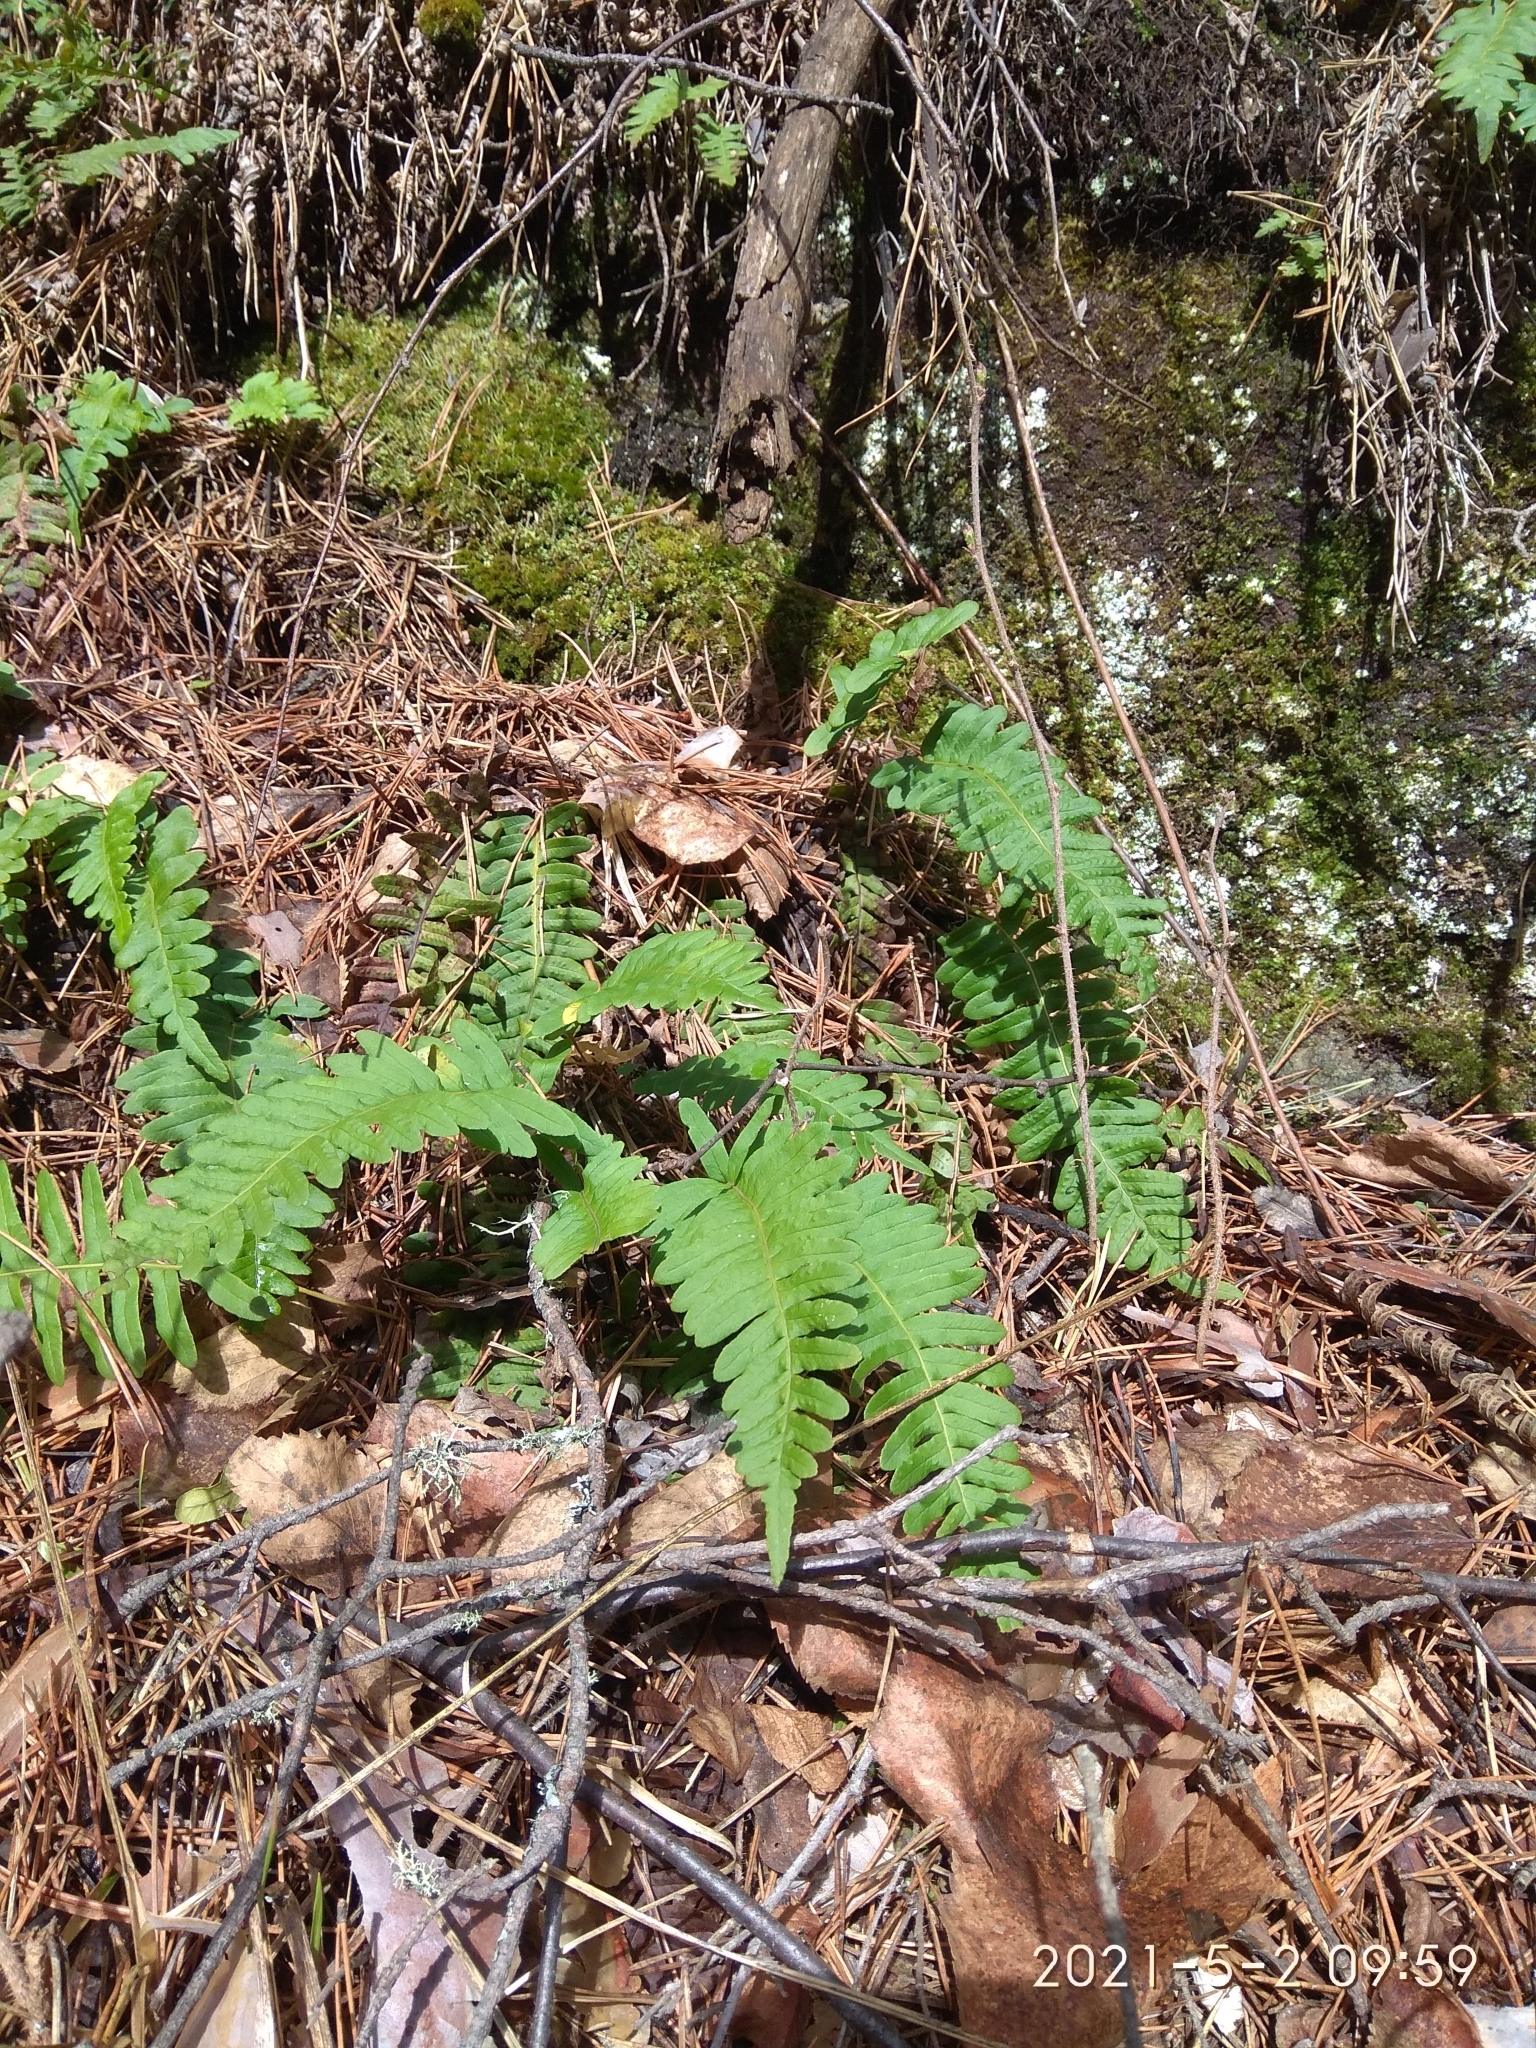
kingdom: Plantae
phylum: Tracheophyta
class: Polypodiopsida
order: Polypodiales
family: Polypodiaceae
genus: Polypodium
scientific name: Polypodium sibiricum
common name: Siberian polypody
